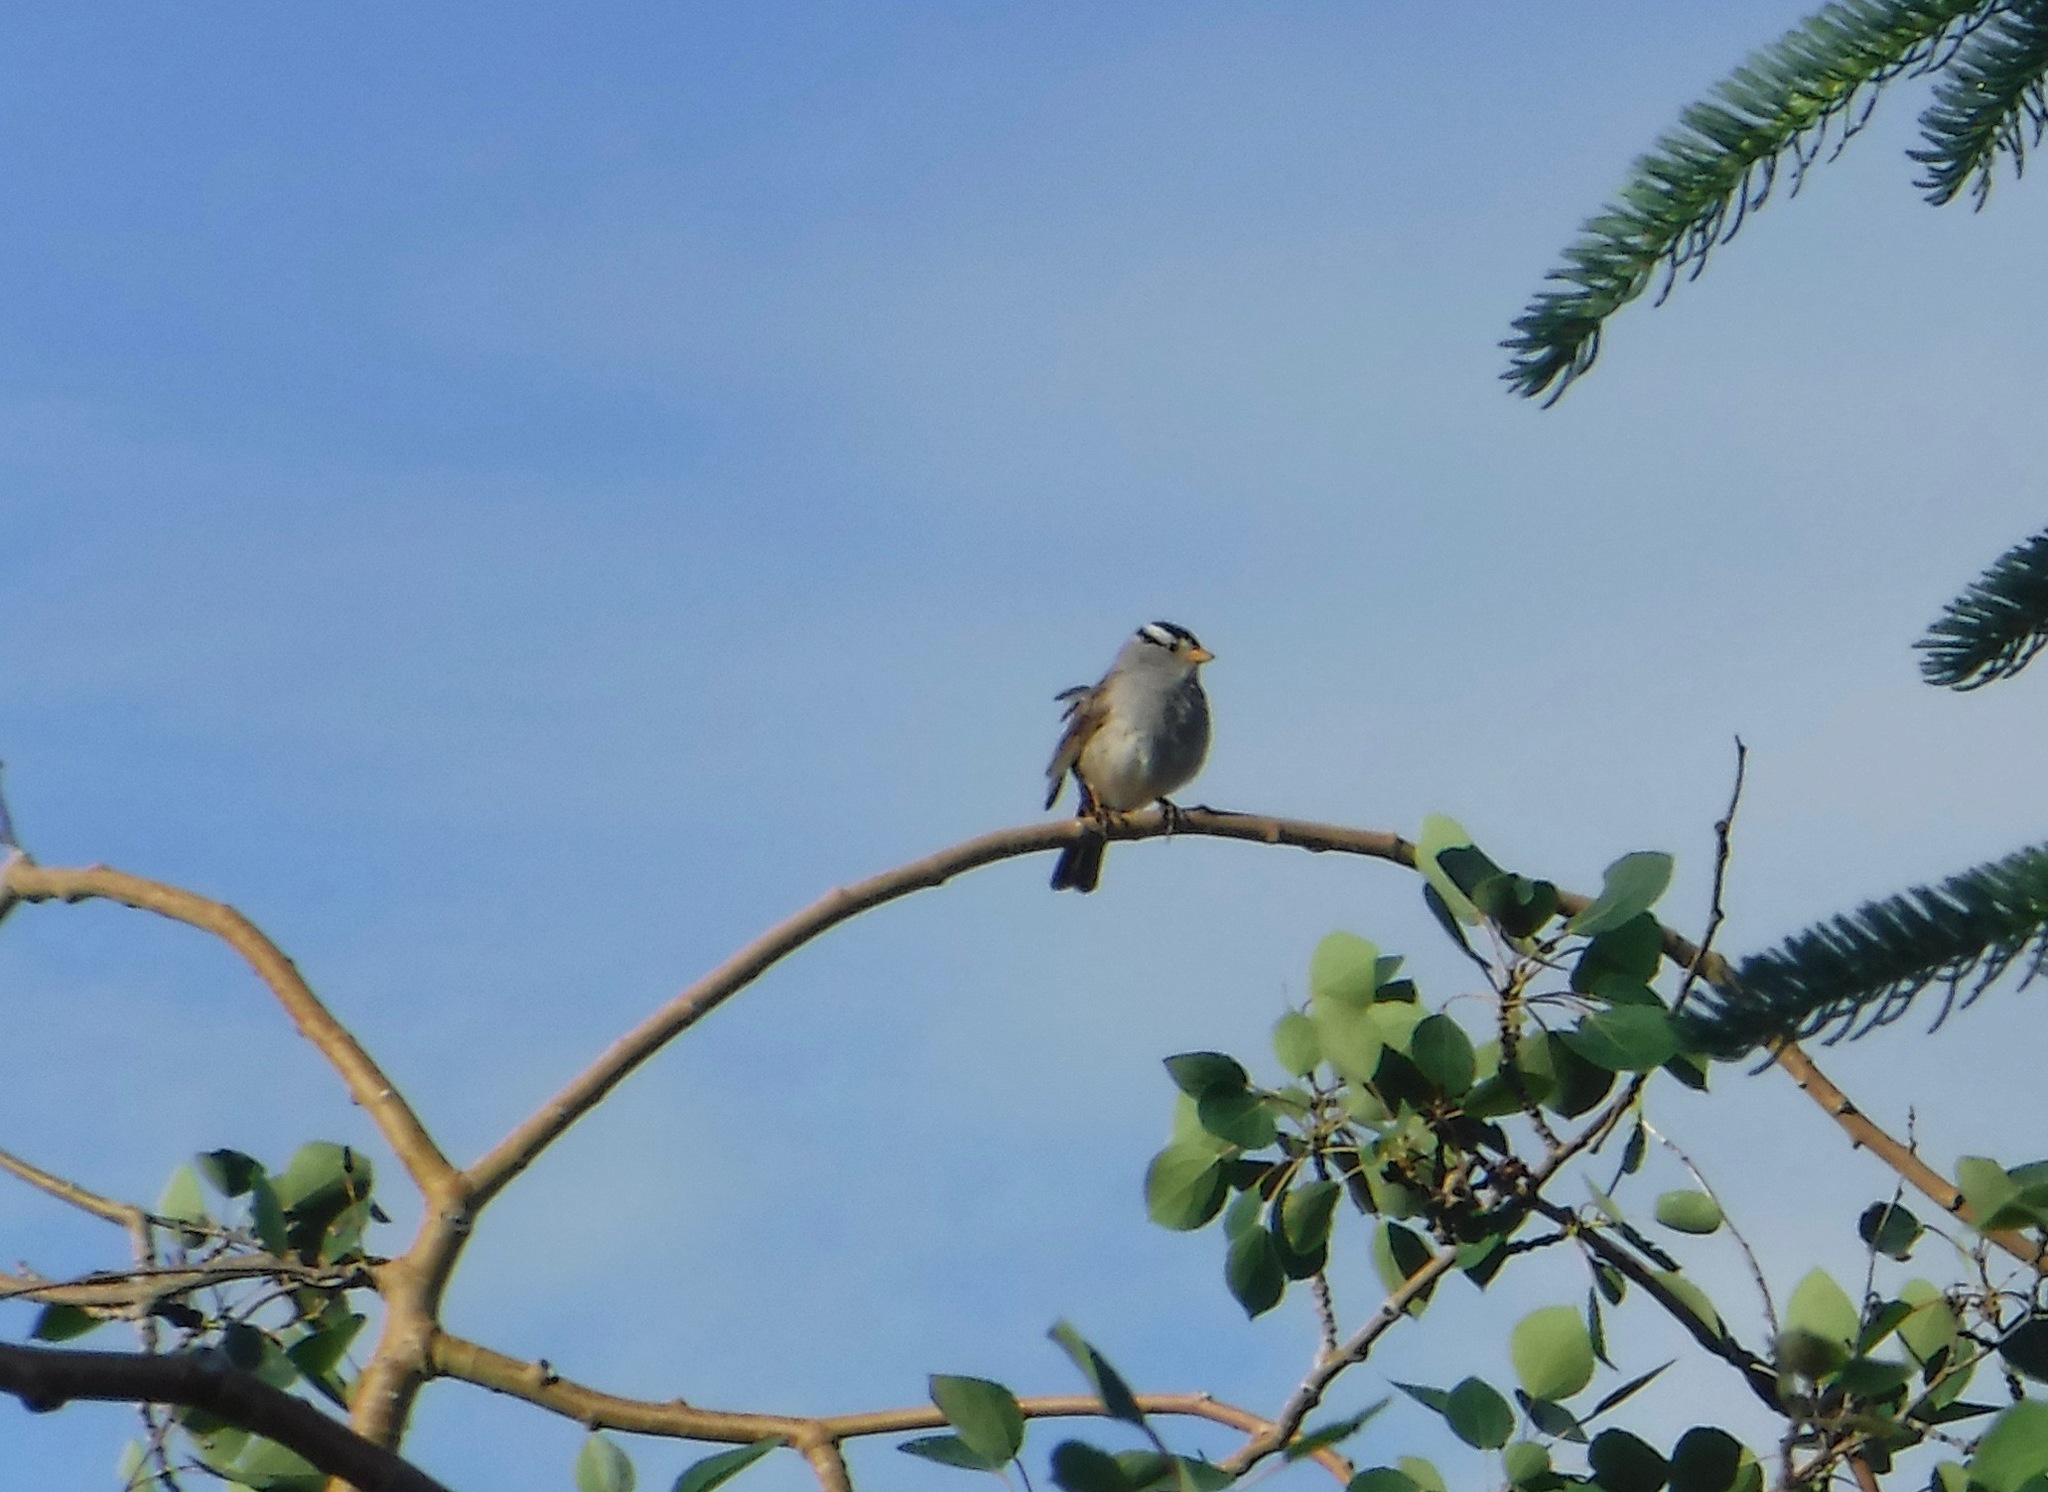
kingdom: Animalia
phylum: Chordata
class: Aves
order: Passeriformes
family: Passerellidae
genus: Zonotrichia
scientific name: Zonotrichia leucophrys
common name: White-crowned sparrow
